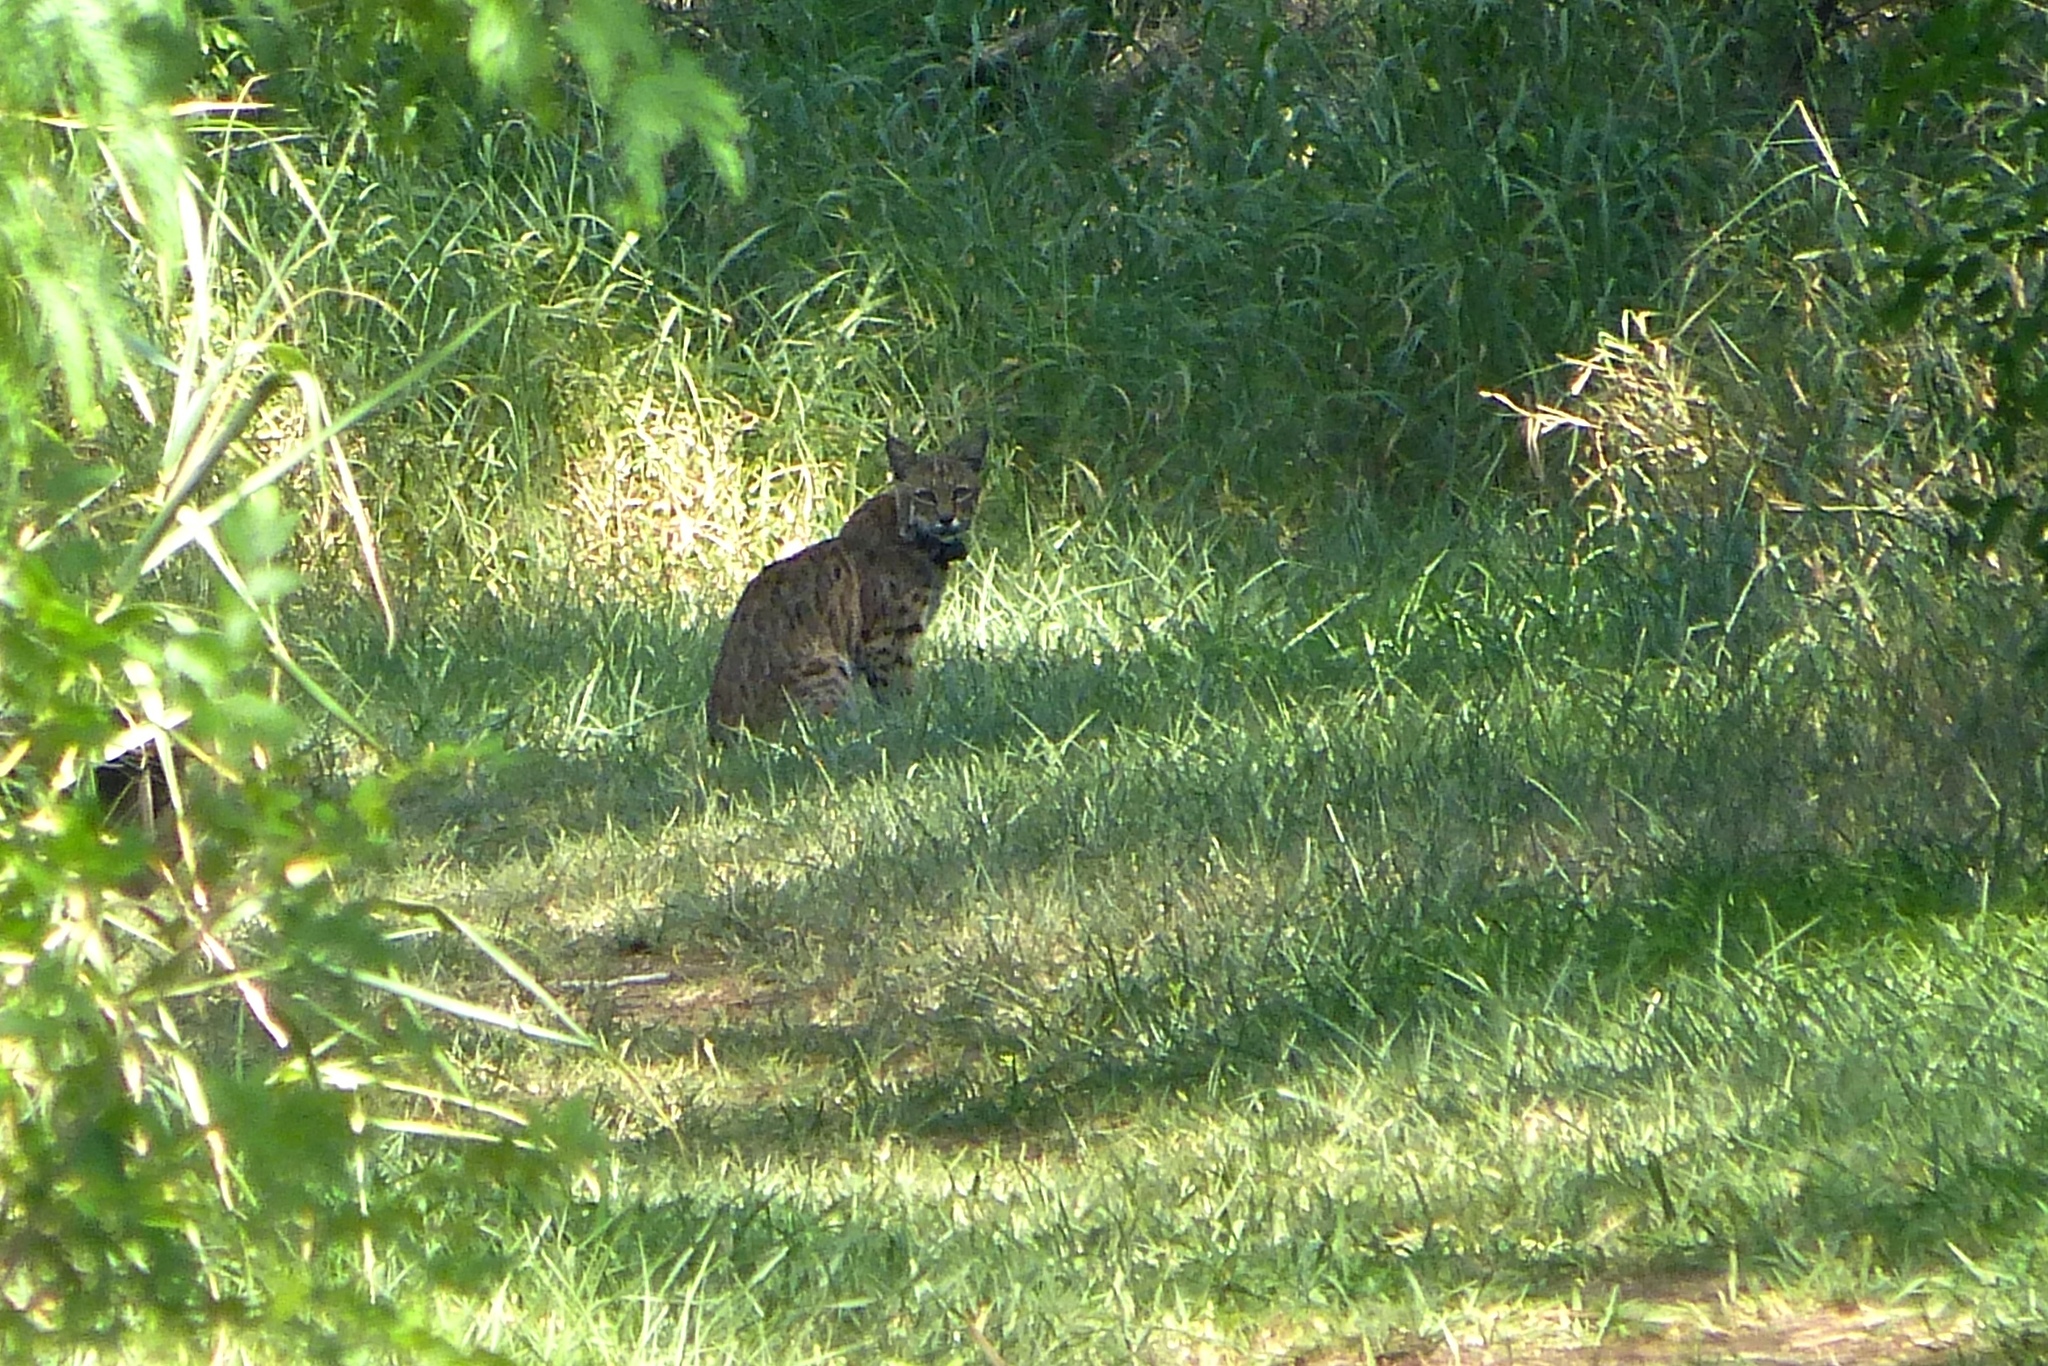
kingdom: Animalia
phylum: Chordata
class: Mammalia
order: Carnivora
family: Felidae
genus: Lynx
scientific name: Lynx rufus
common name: Bobcat
